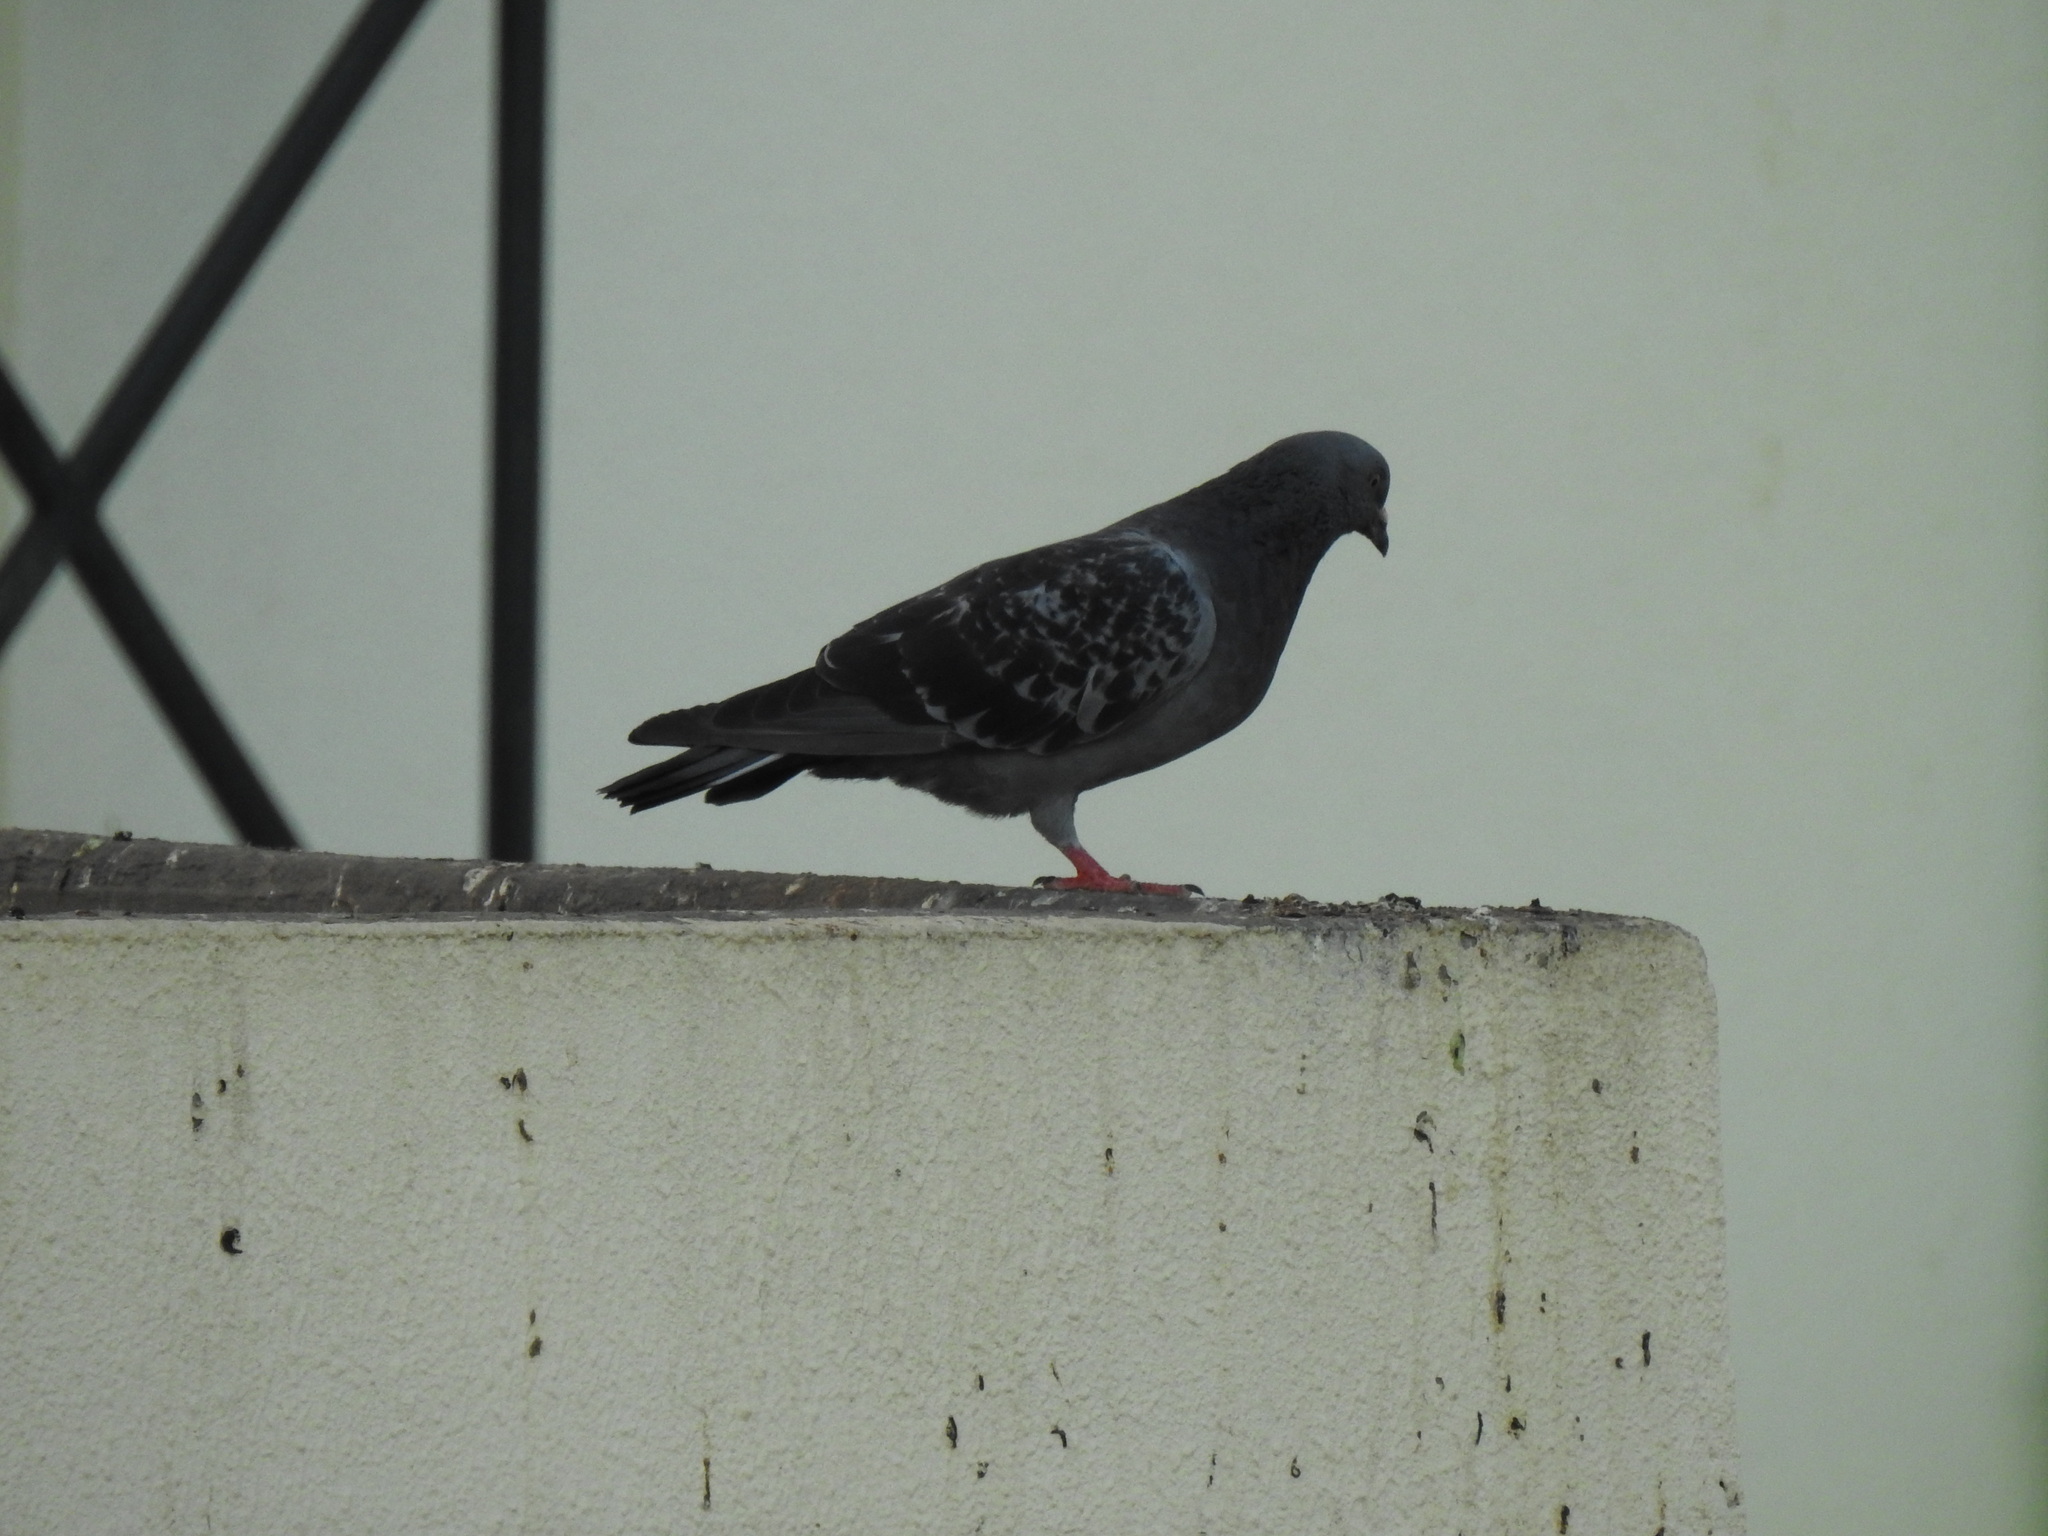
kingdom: Animalia
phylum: Chordata
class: Aves
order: Columbiformes
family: Columbidae
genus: Columba
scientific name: Columba livia
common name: Rock pigeon
